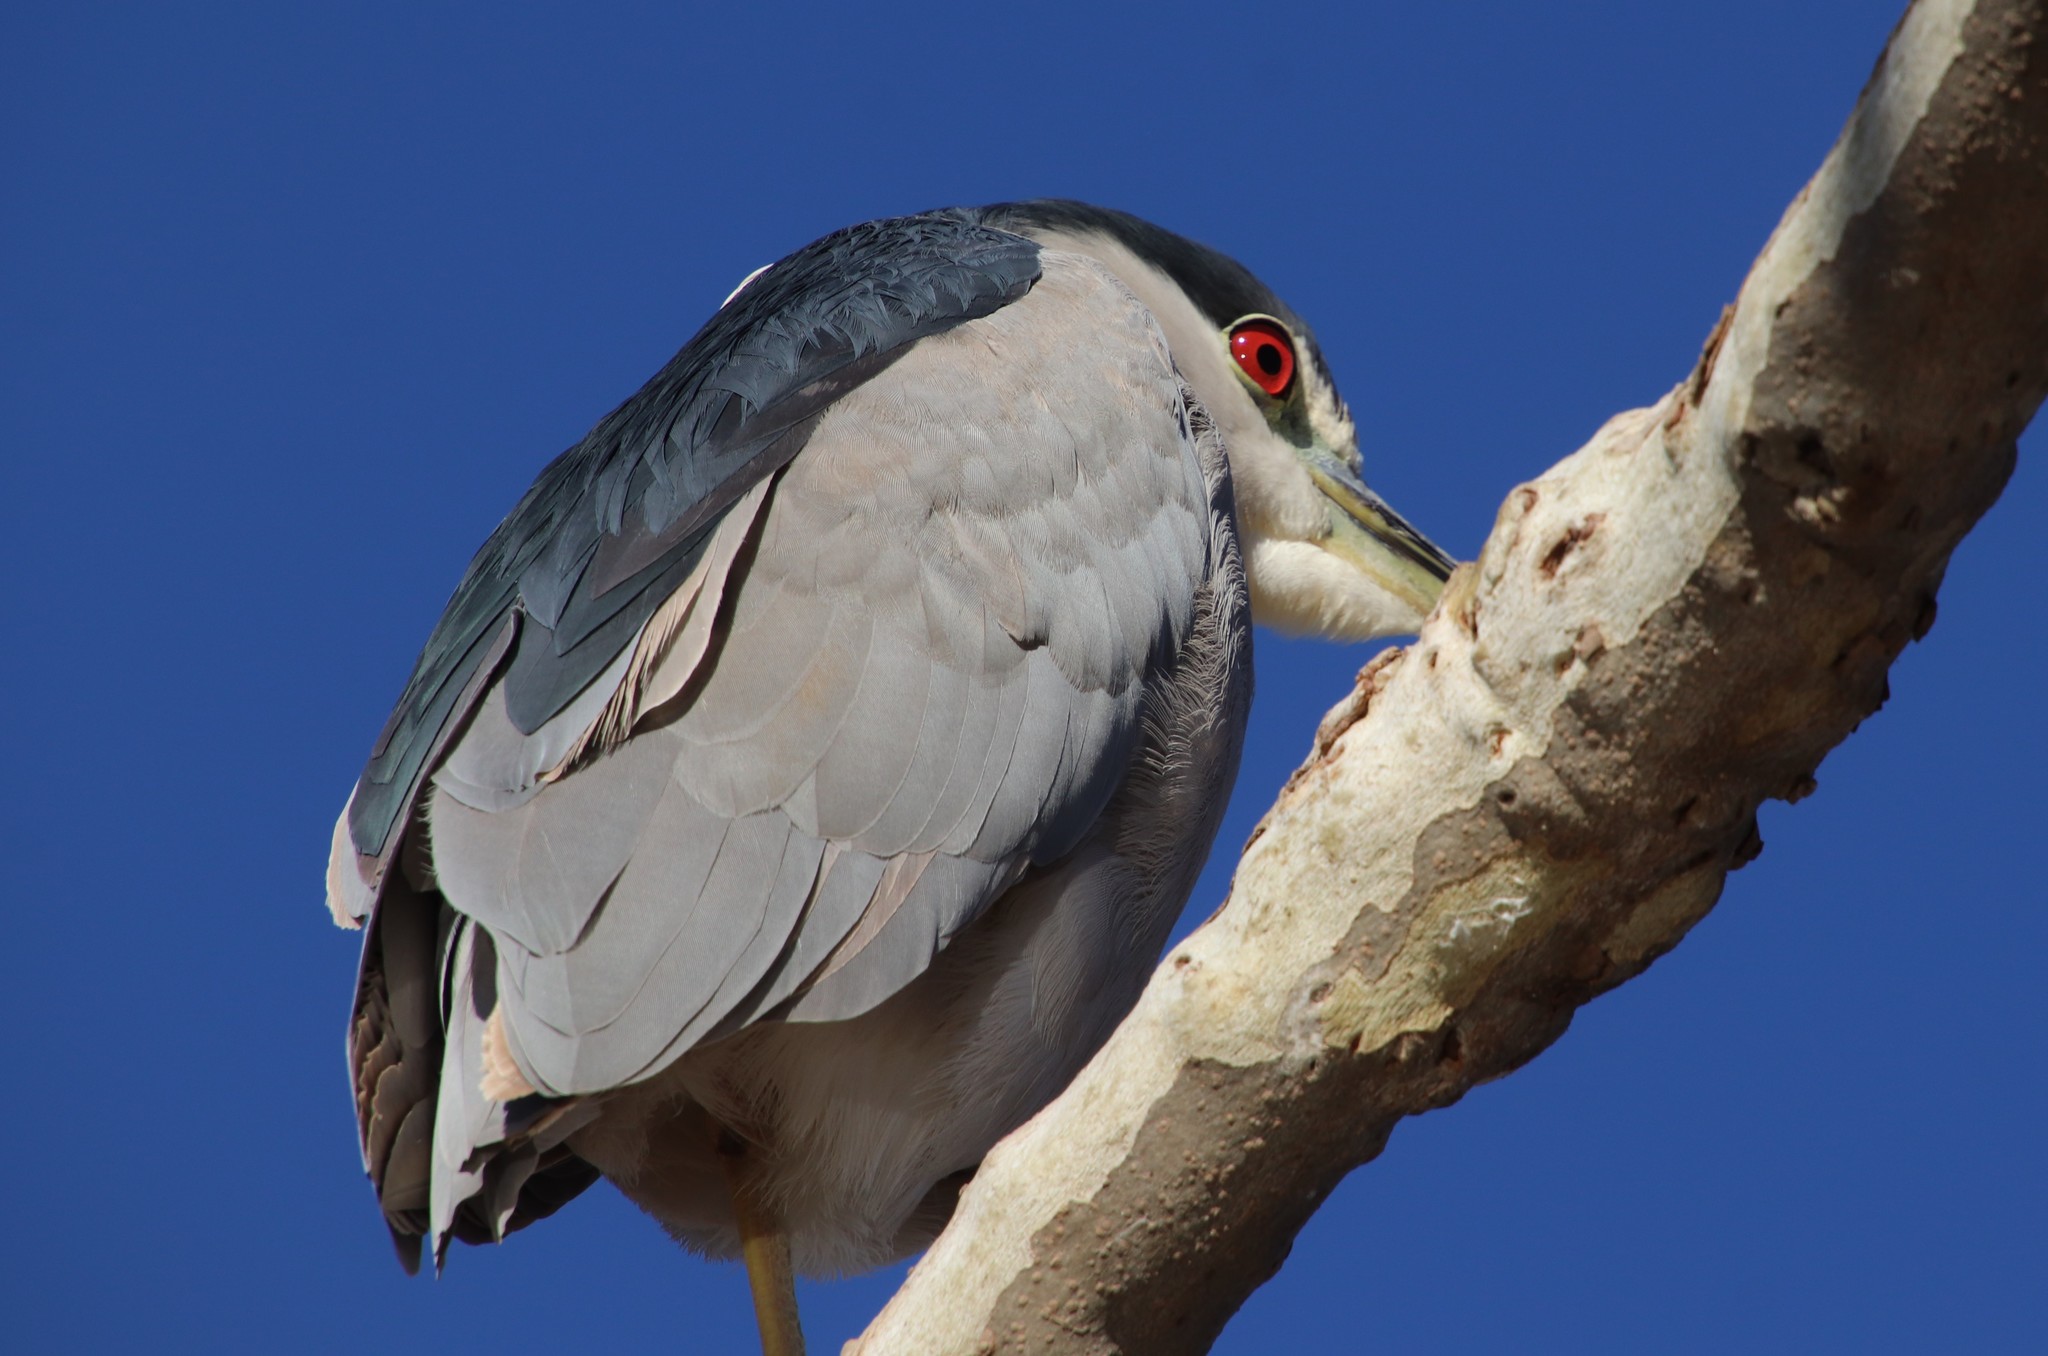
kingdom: Animalia
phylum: Chordata
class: Aves
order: Pelecaniformes
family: Ardeidae
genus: Nycticorax
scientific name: Nycticorax nycticorax
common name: Black-crowned night heron
